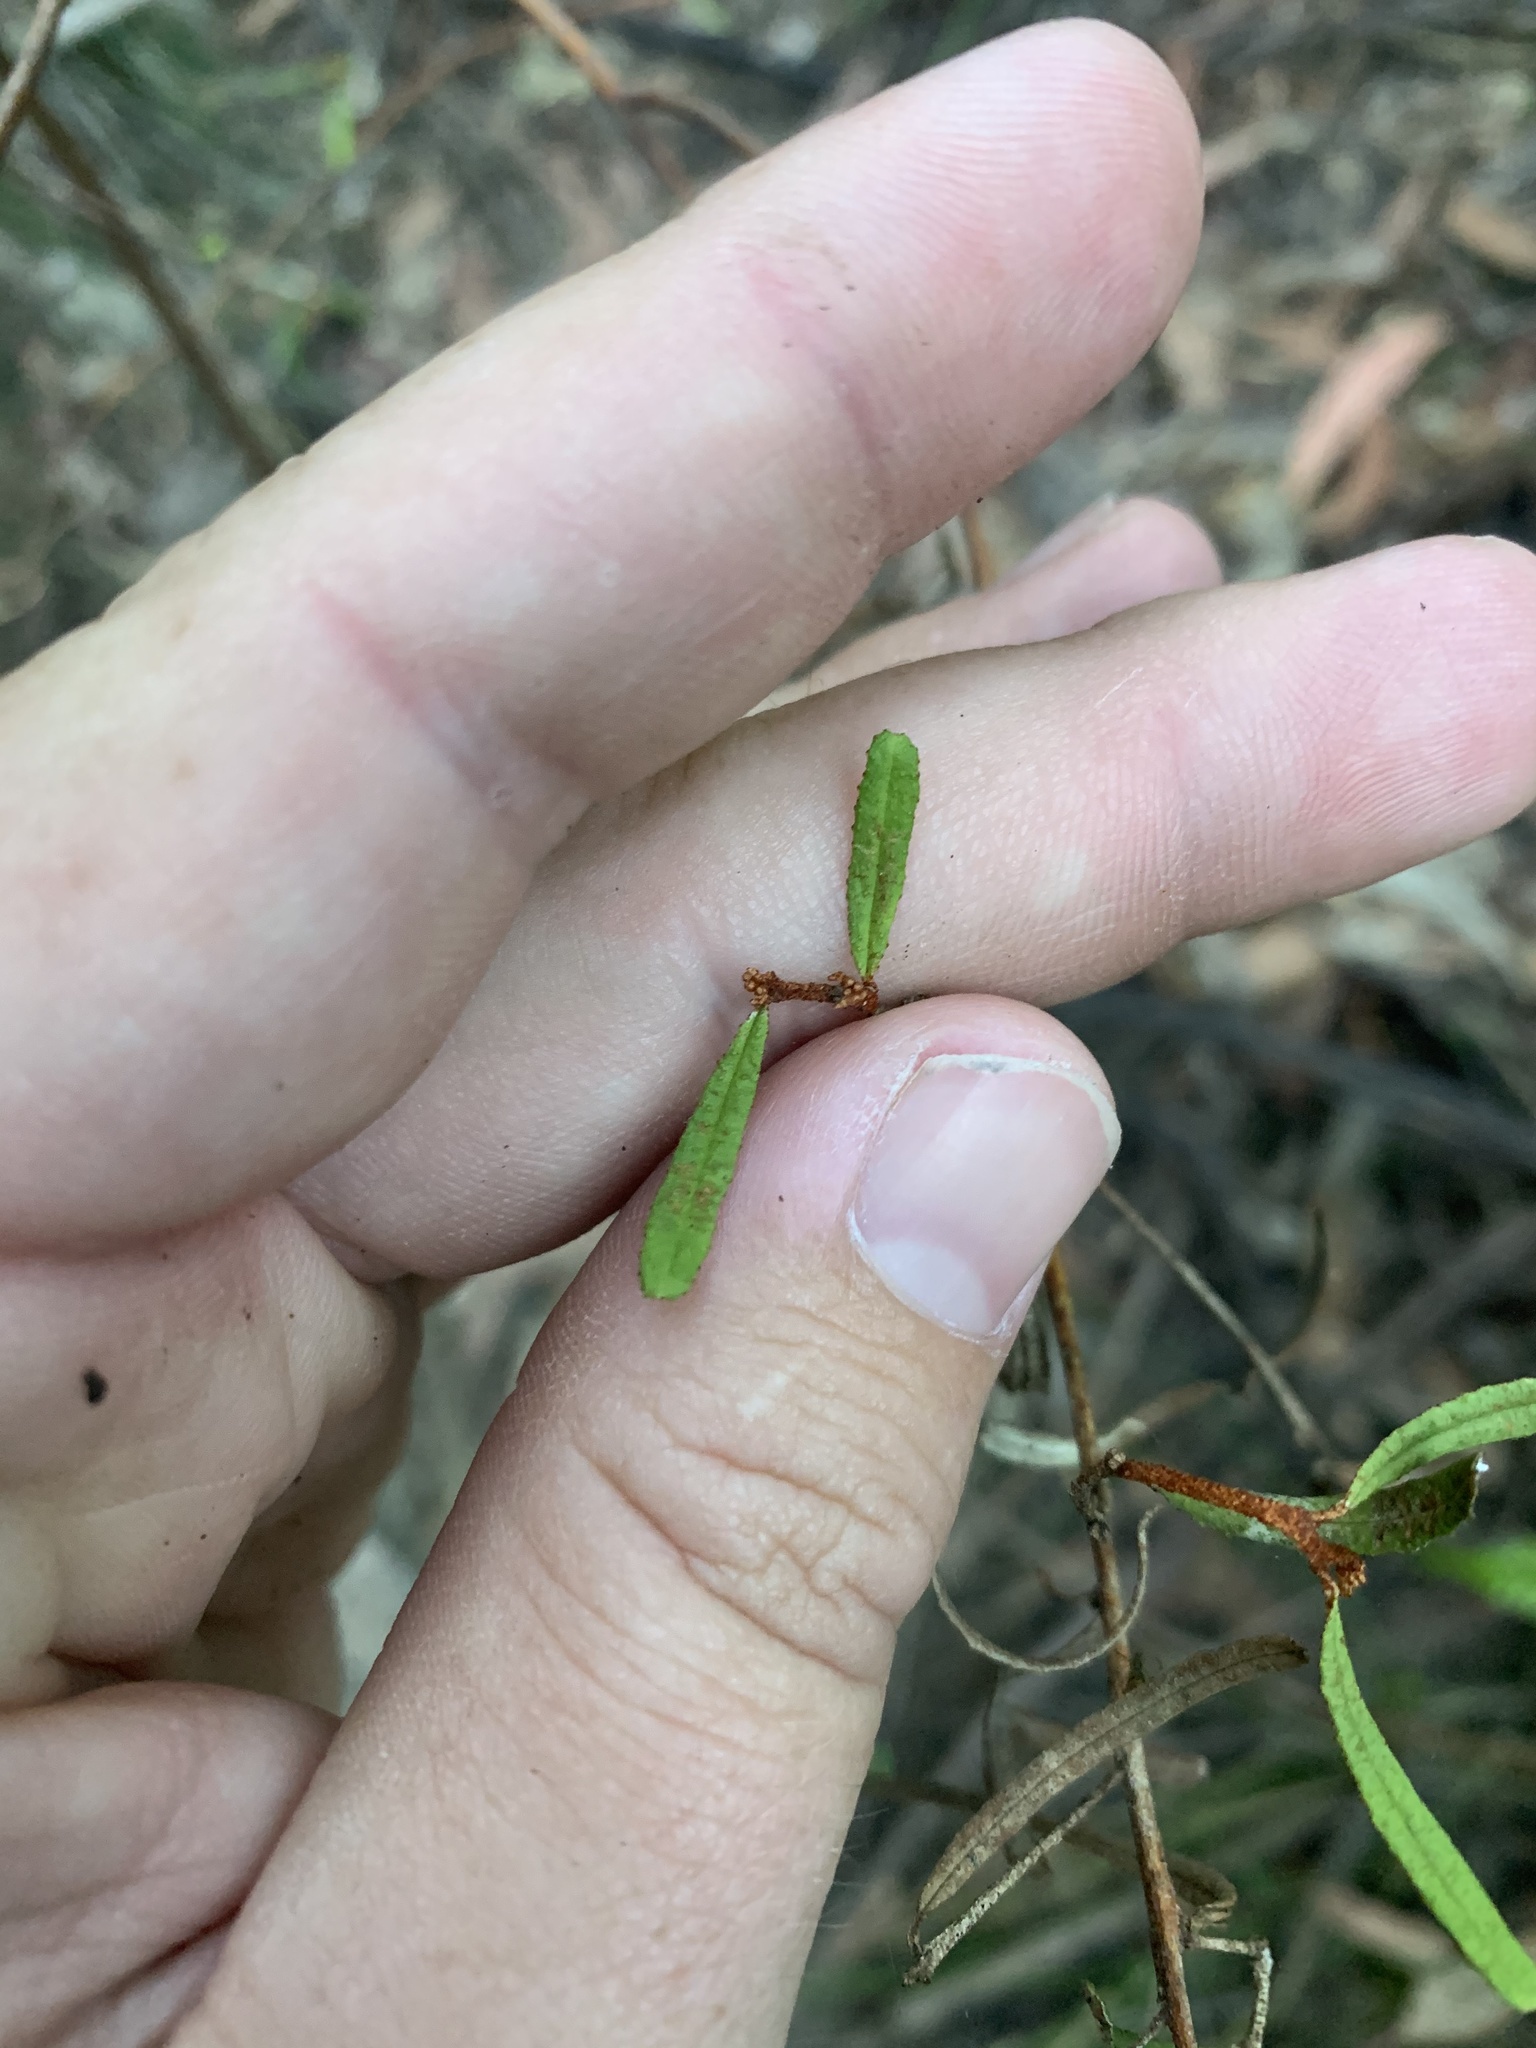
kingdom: Plantae
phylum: Tracheophyta
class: Magnoliopsida
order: Sapindales
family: Rutaceae
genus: Phebalium
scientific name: Phebalium squamulosum
